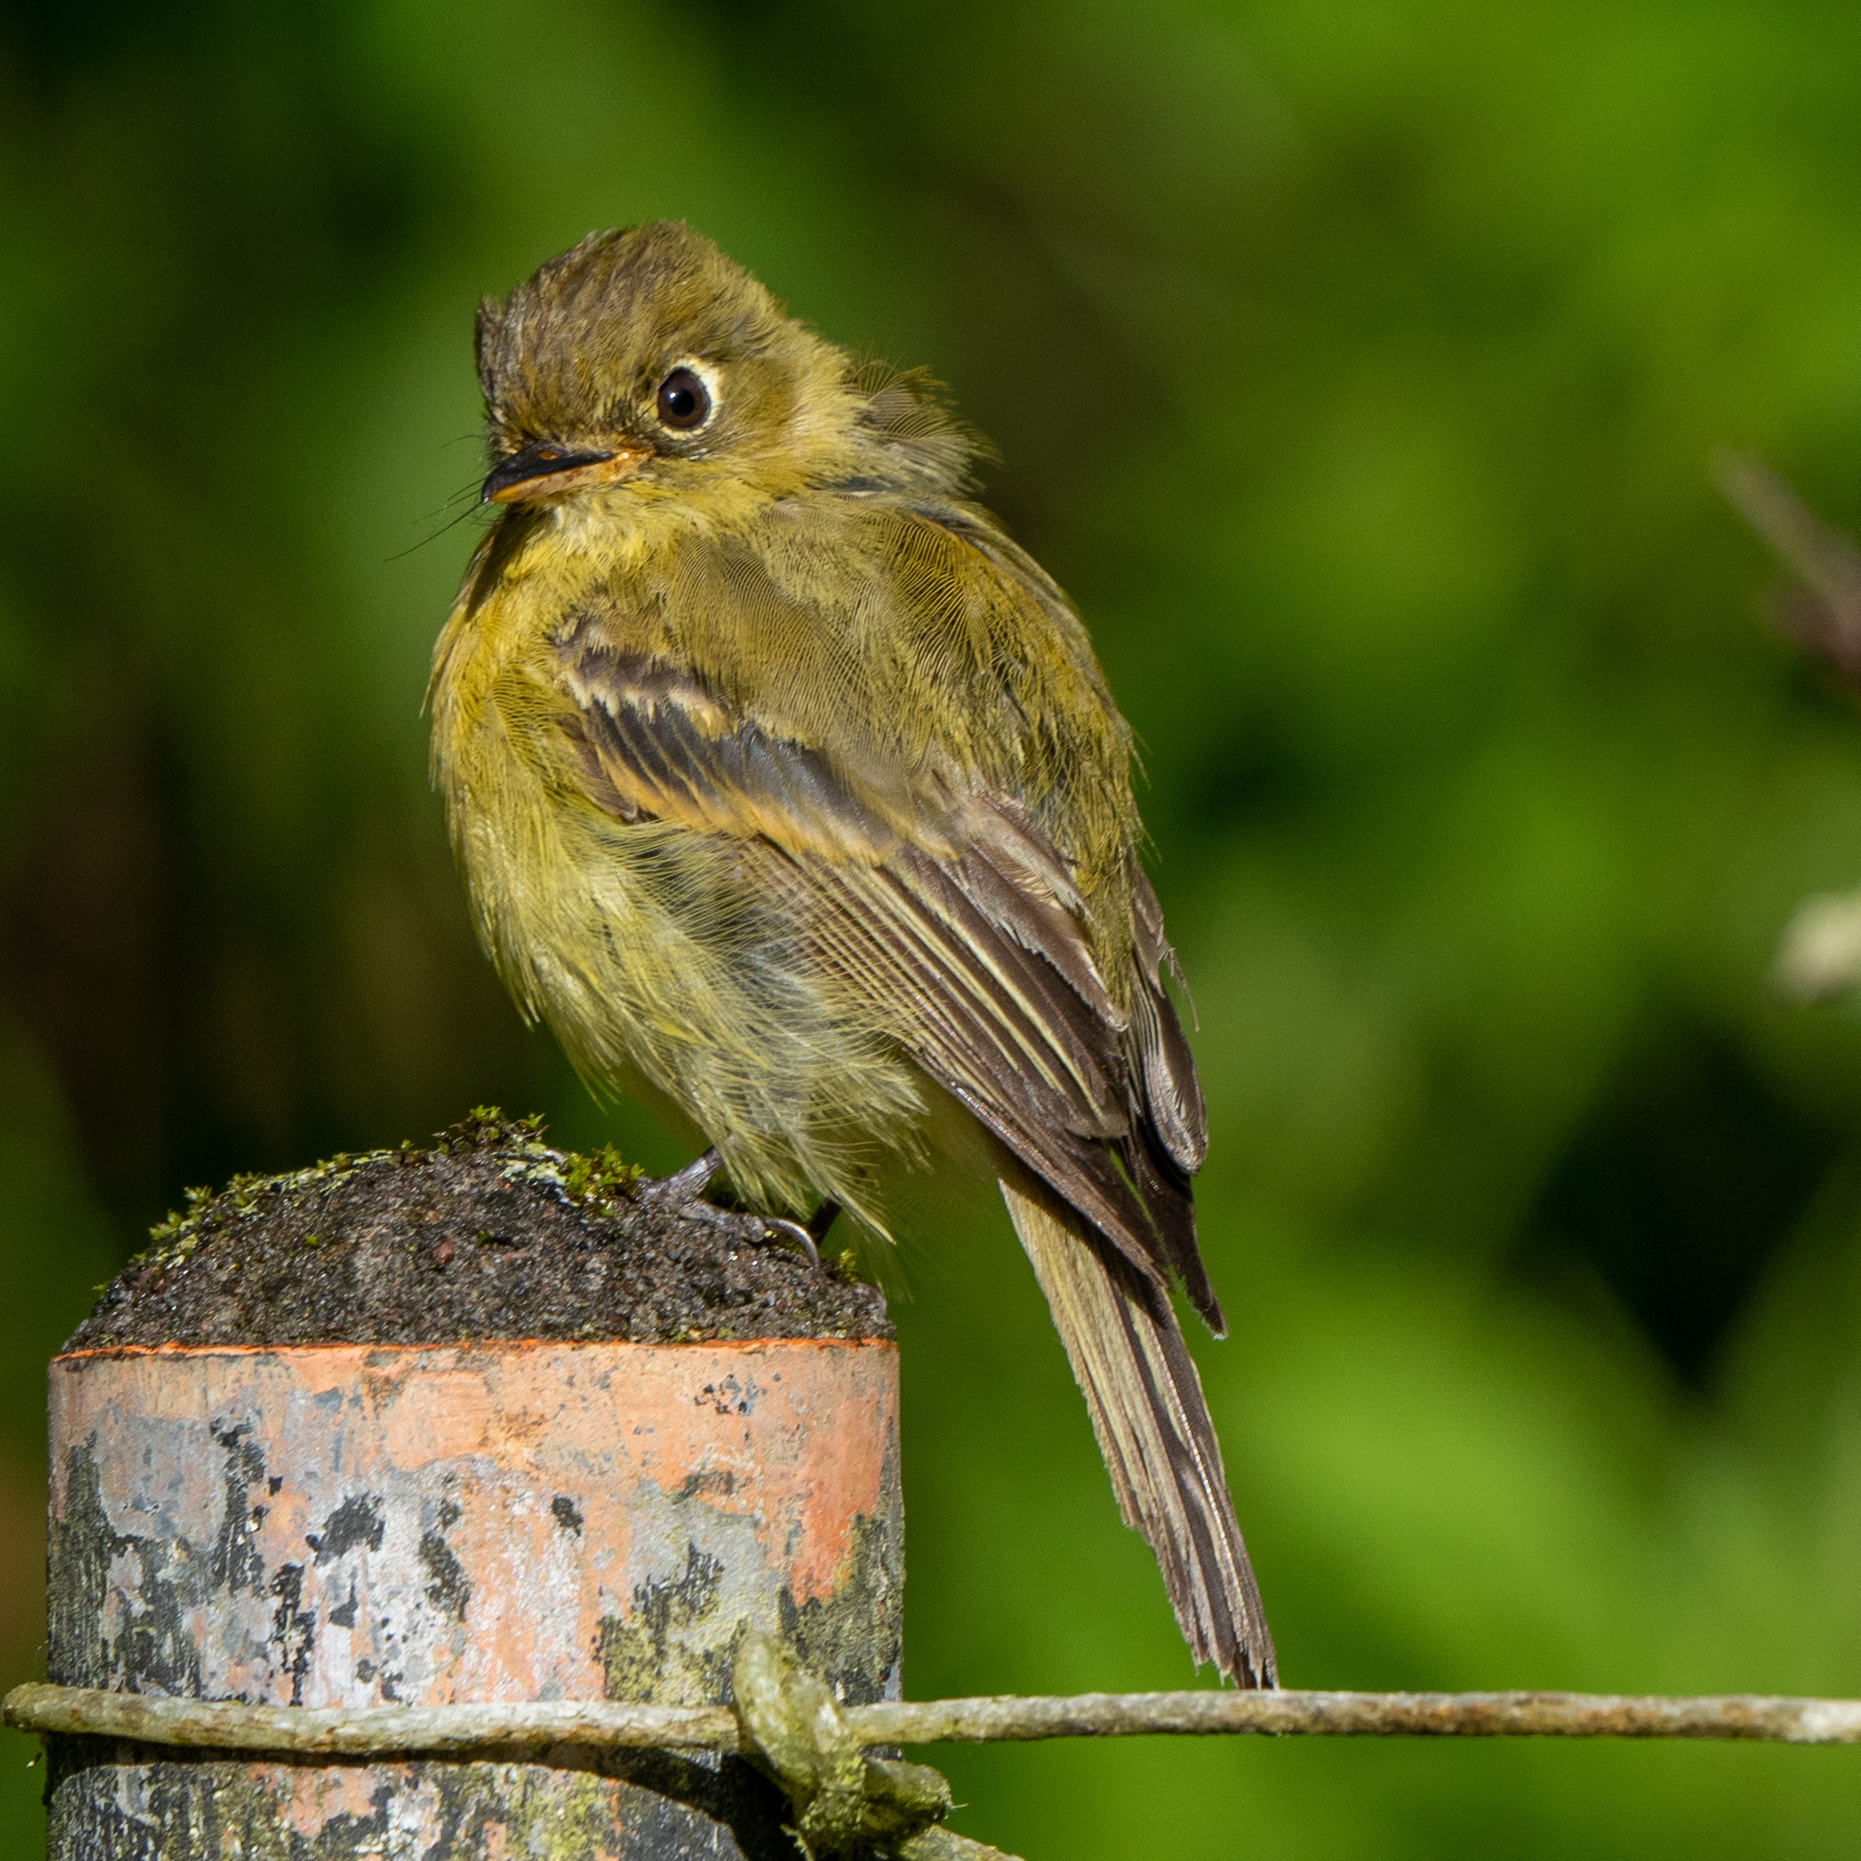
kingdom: Animalia
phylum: Chordata
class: Aves
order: Passeriformes
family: Tyrannidae
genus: Empidonax
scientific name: Empidonax flavescens
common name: Yellowish flycatcher
